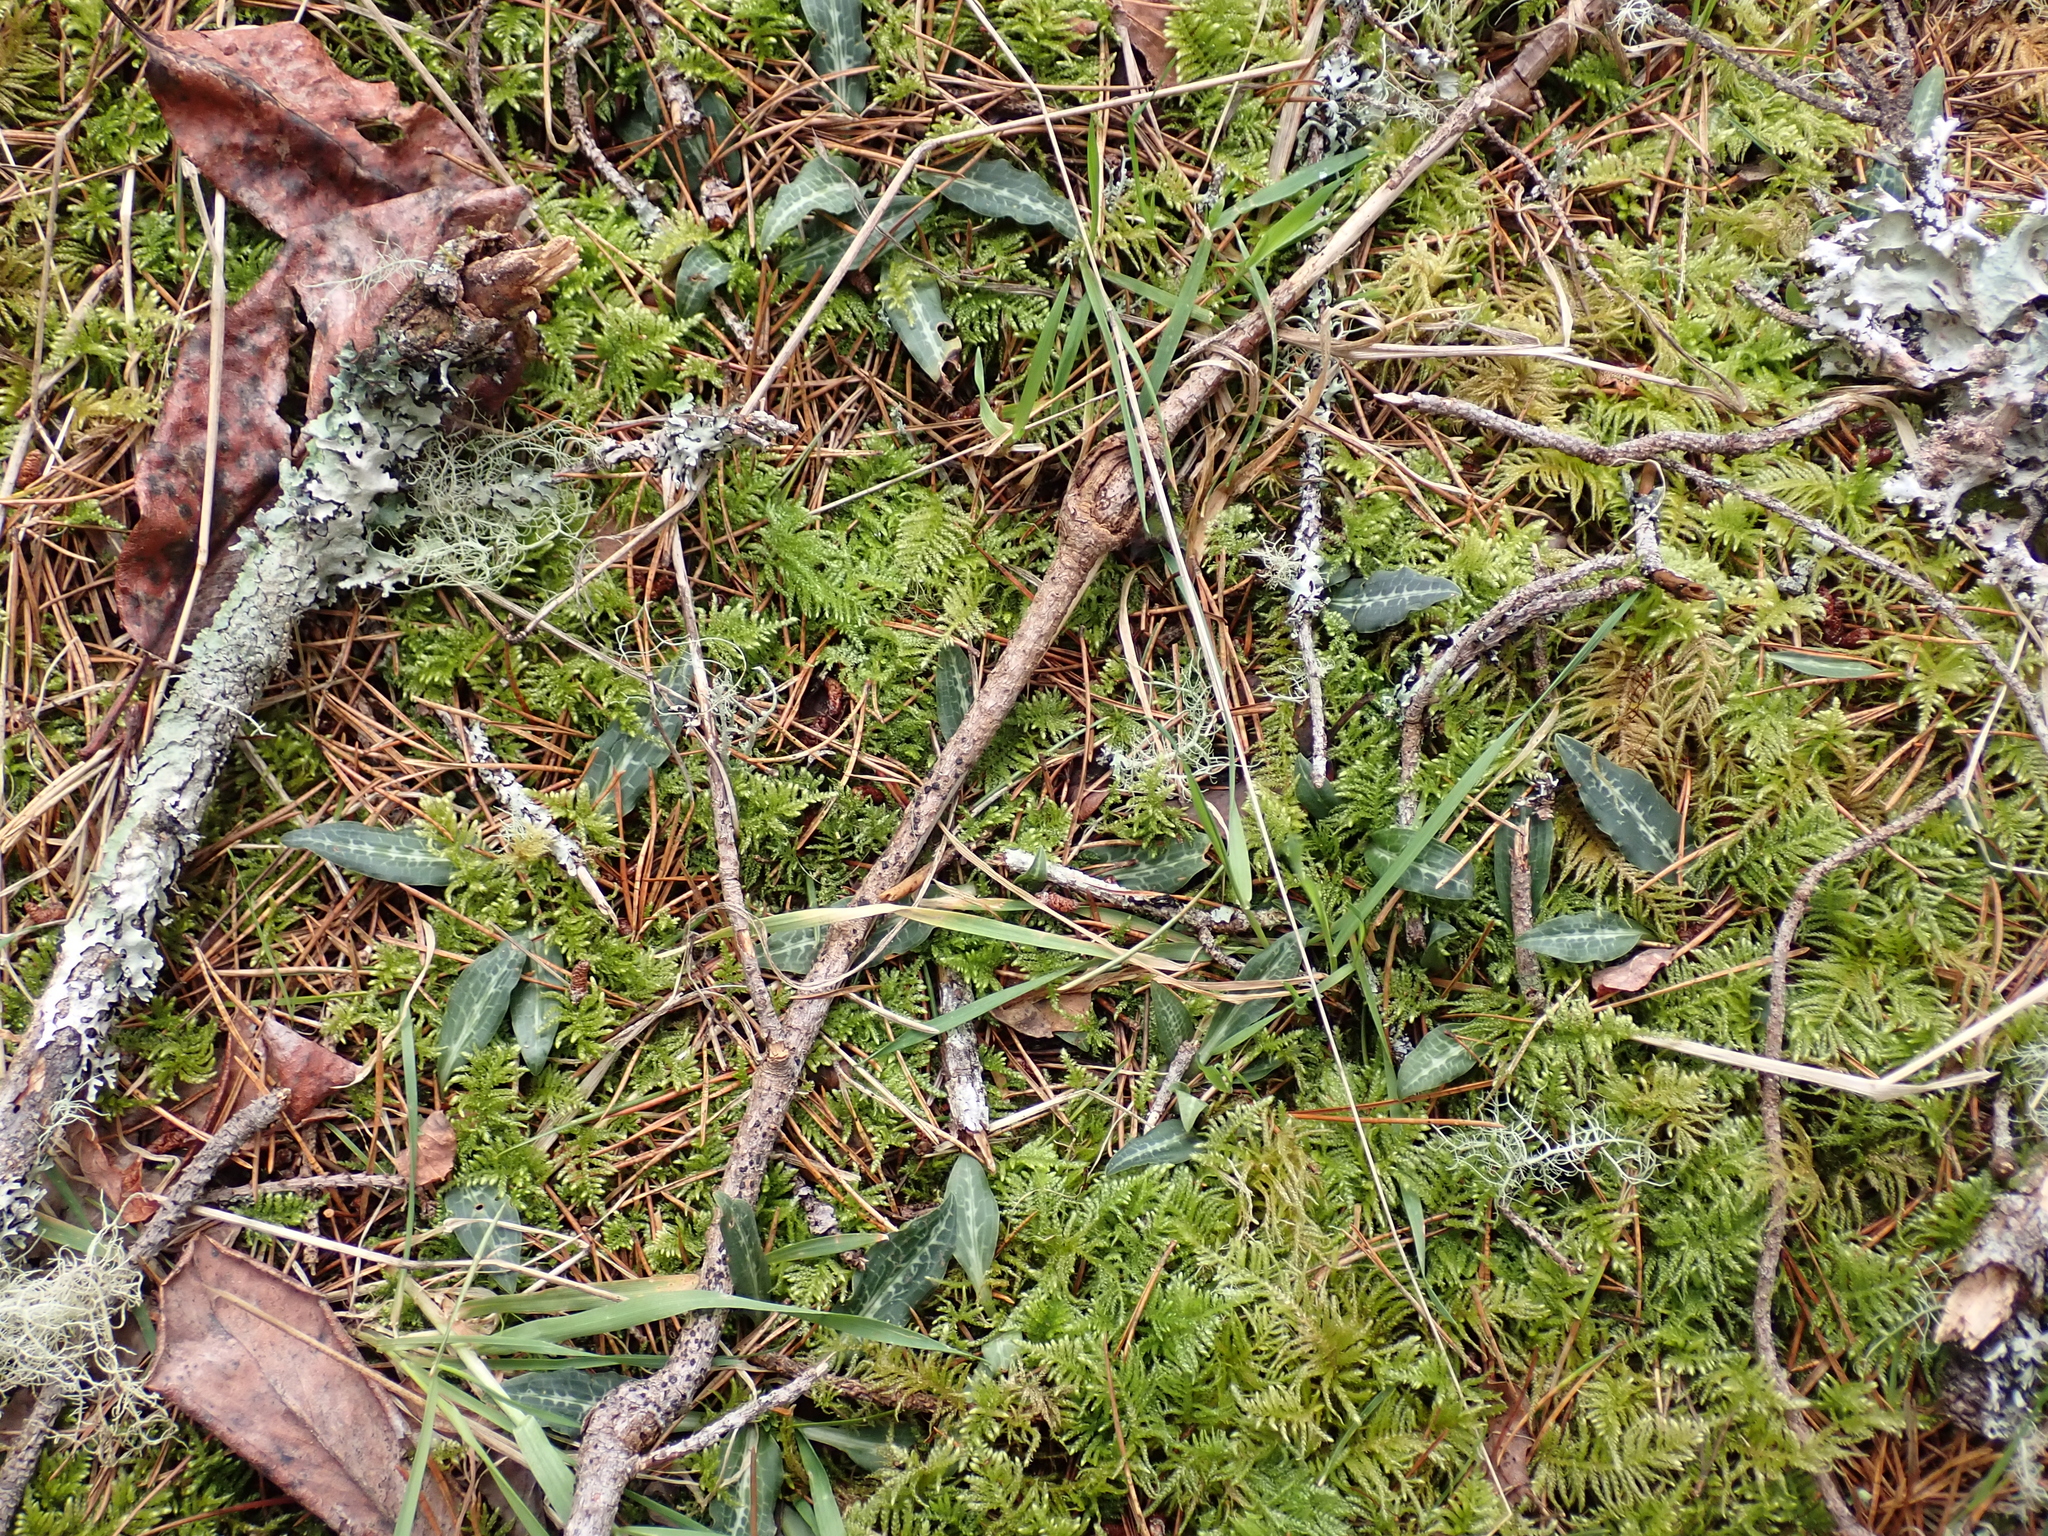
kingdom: Plantae
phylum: Tracheophyta
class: Liliopsida
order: Asparagales
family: Orchidaceae
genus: Goodyera
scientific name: Goodyera oblongifolia
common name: Giant rattlesnake-plantain
